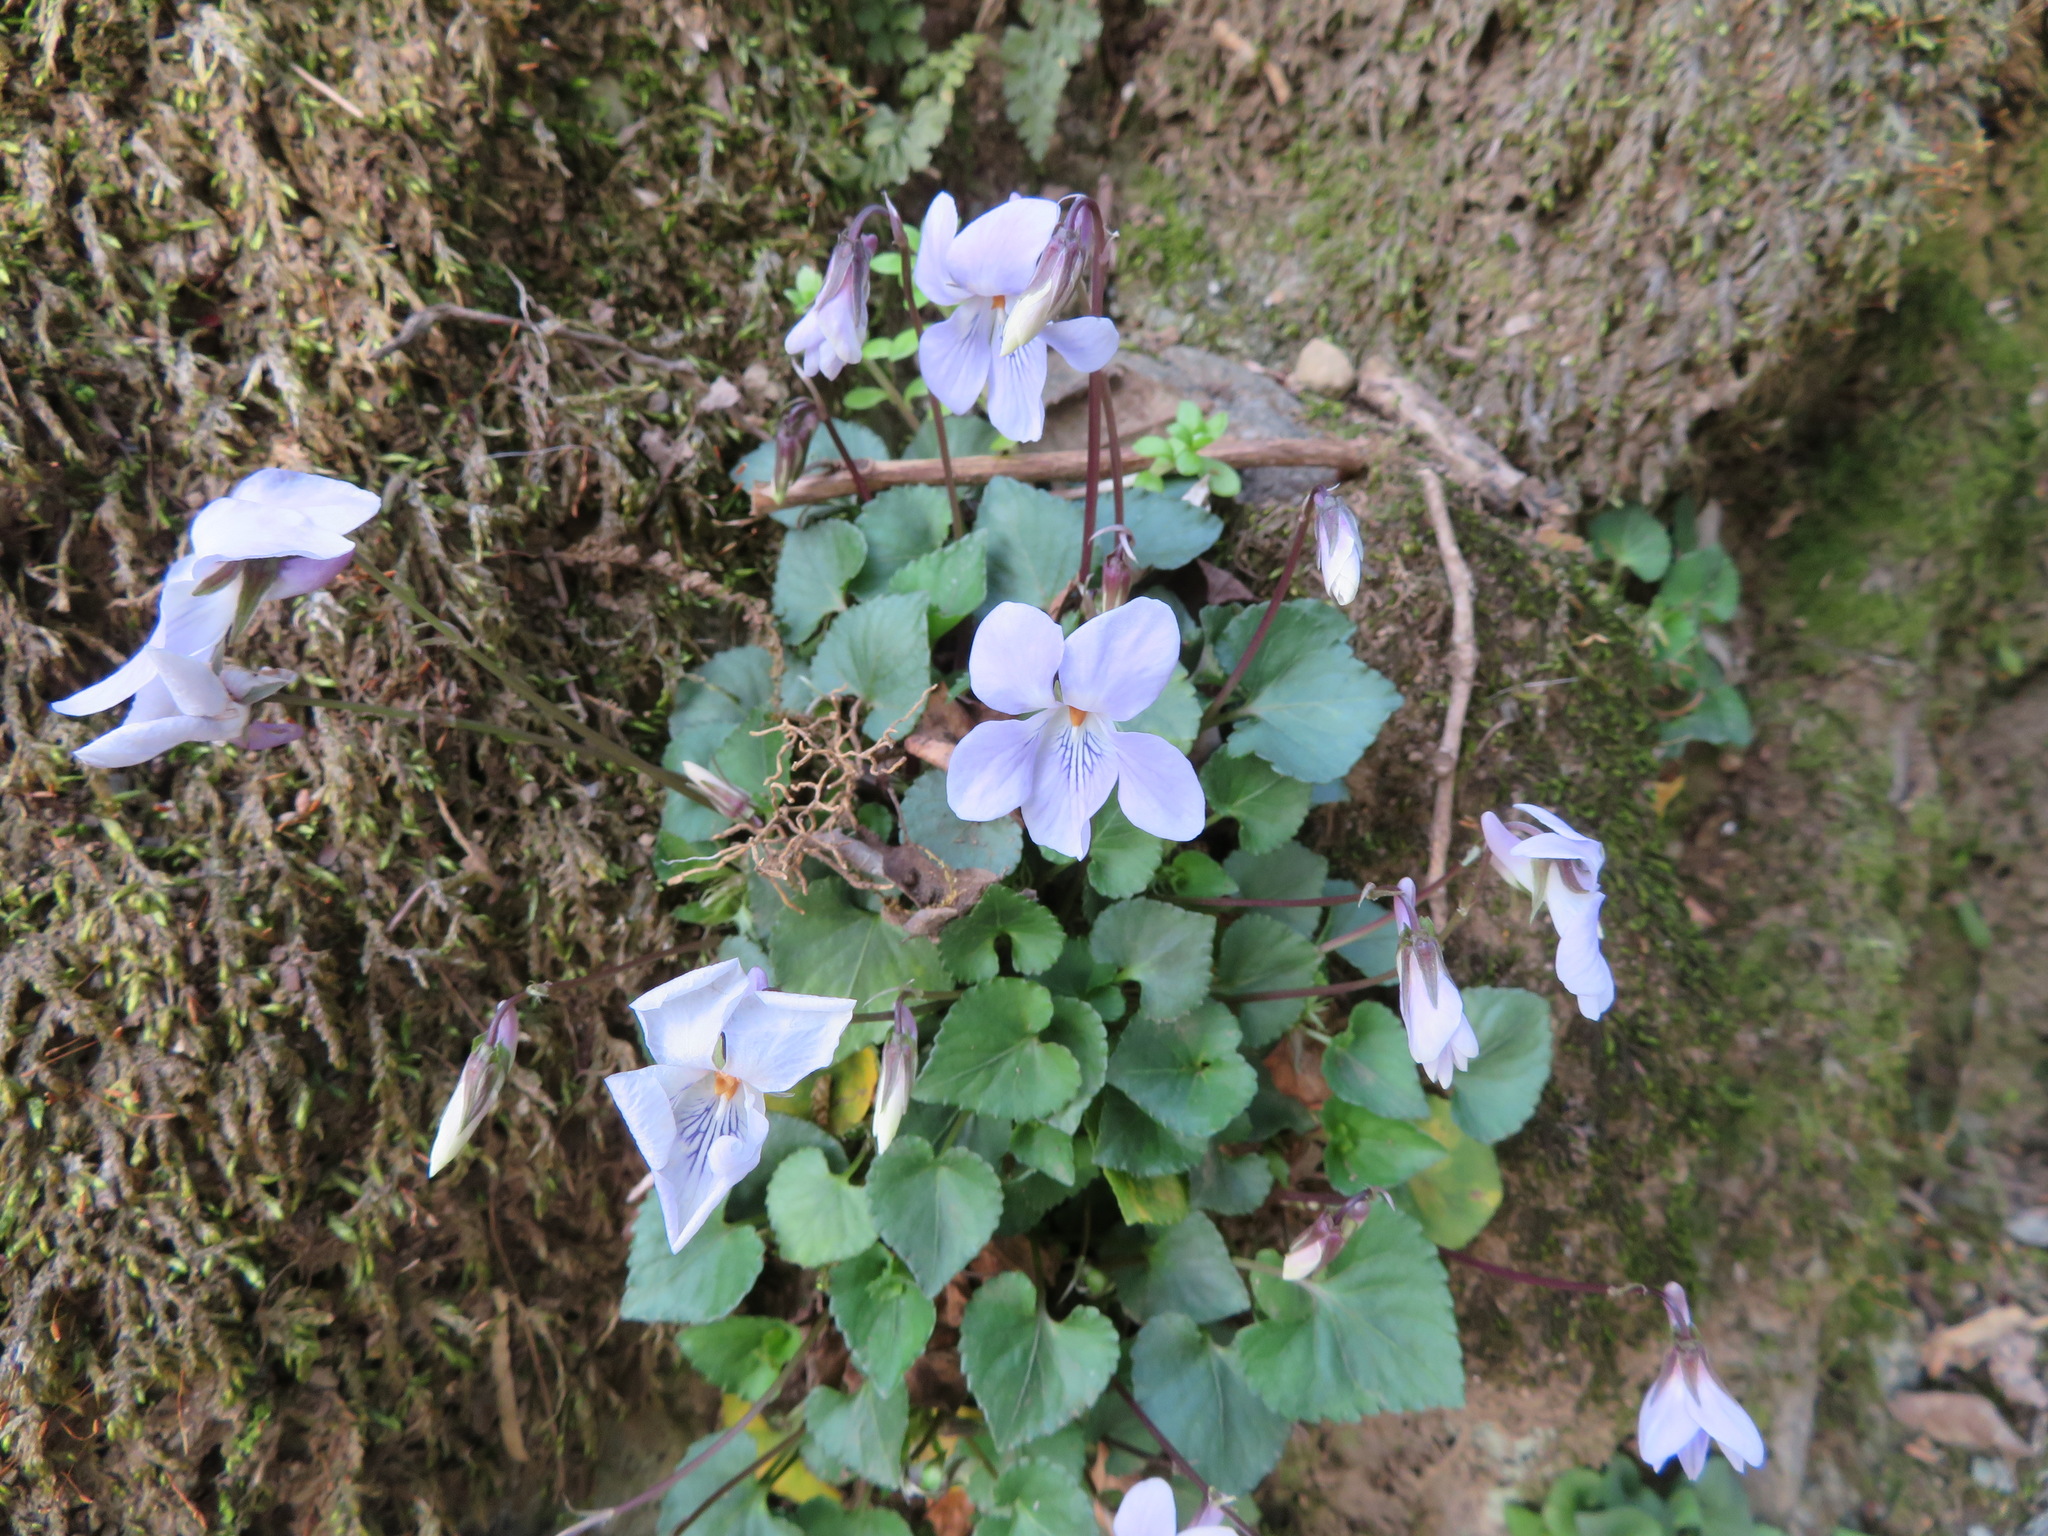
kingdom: Plantae
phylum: Tracheophyta
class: Magnoliopsida
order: Malpighiales
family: Violaceae
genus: Viola
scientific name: Viola grypoceras
